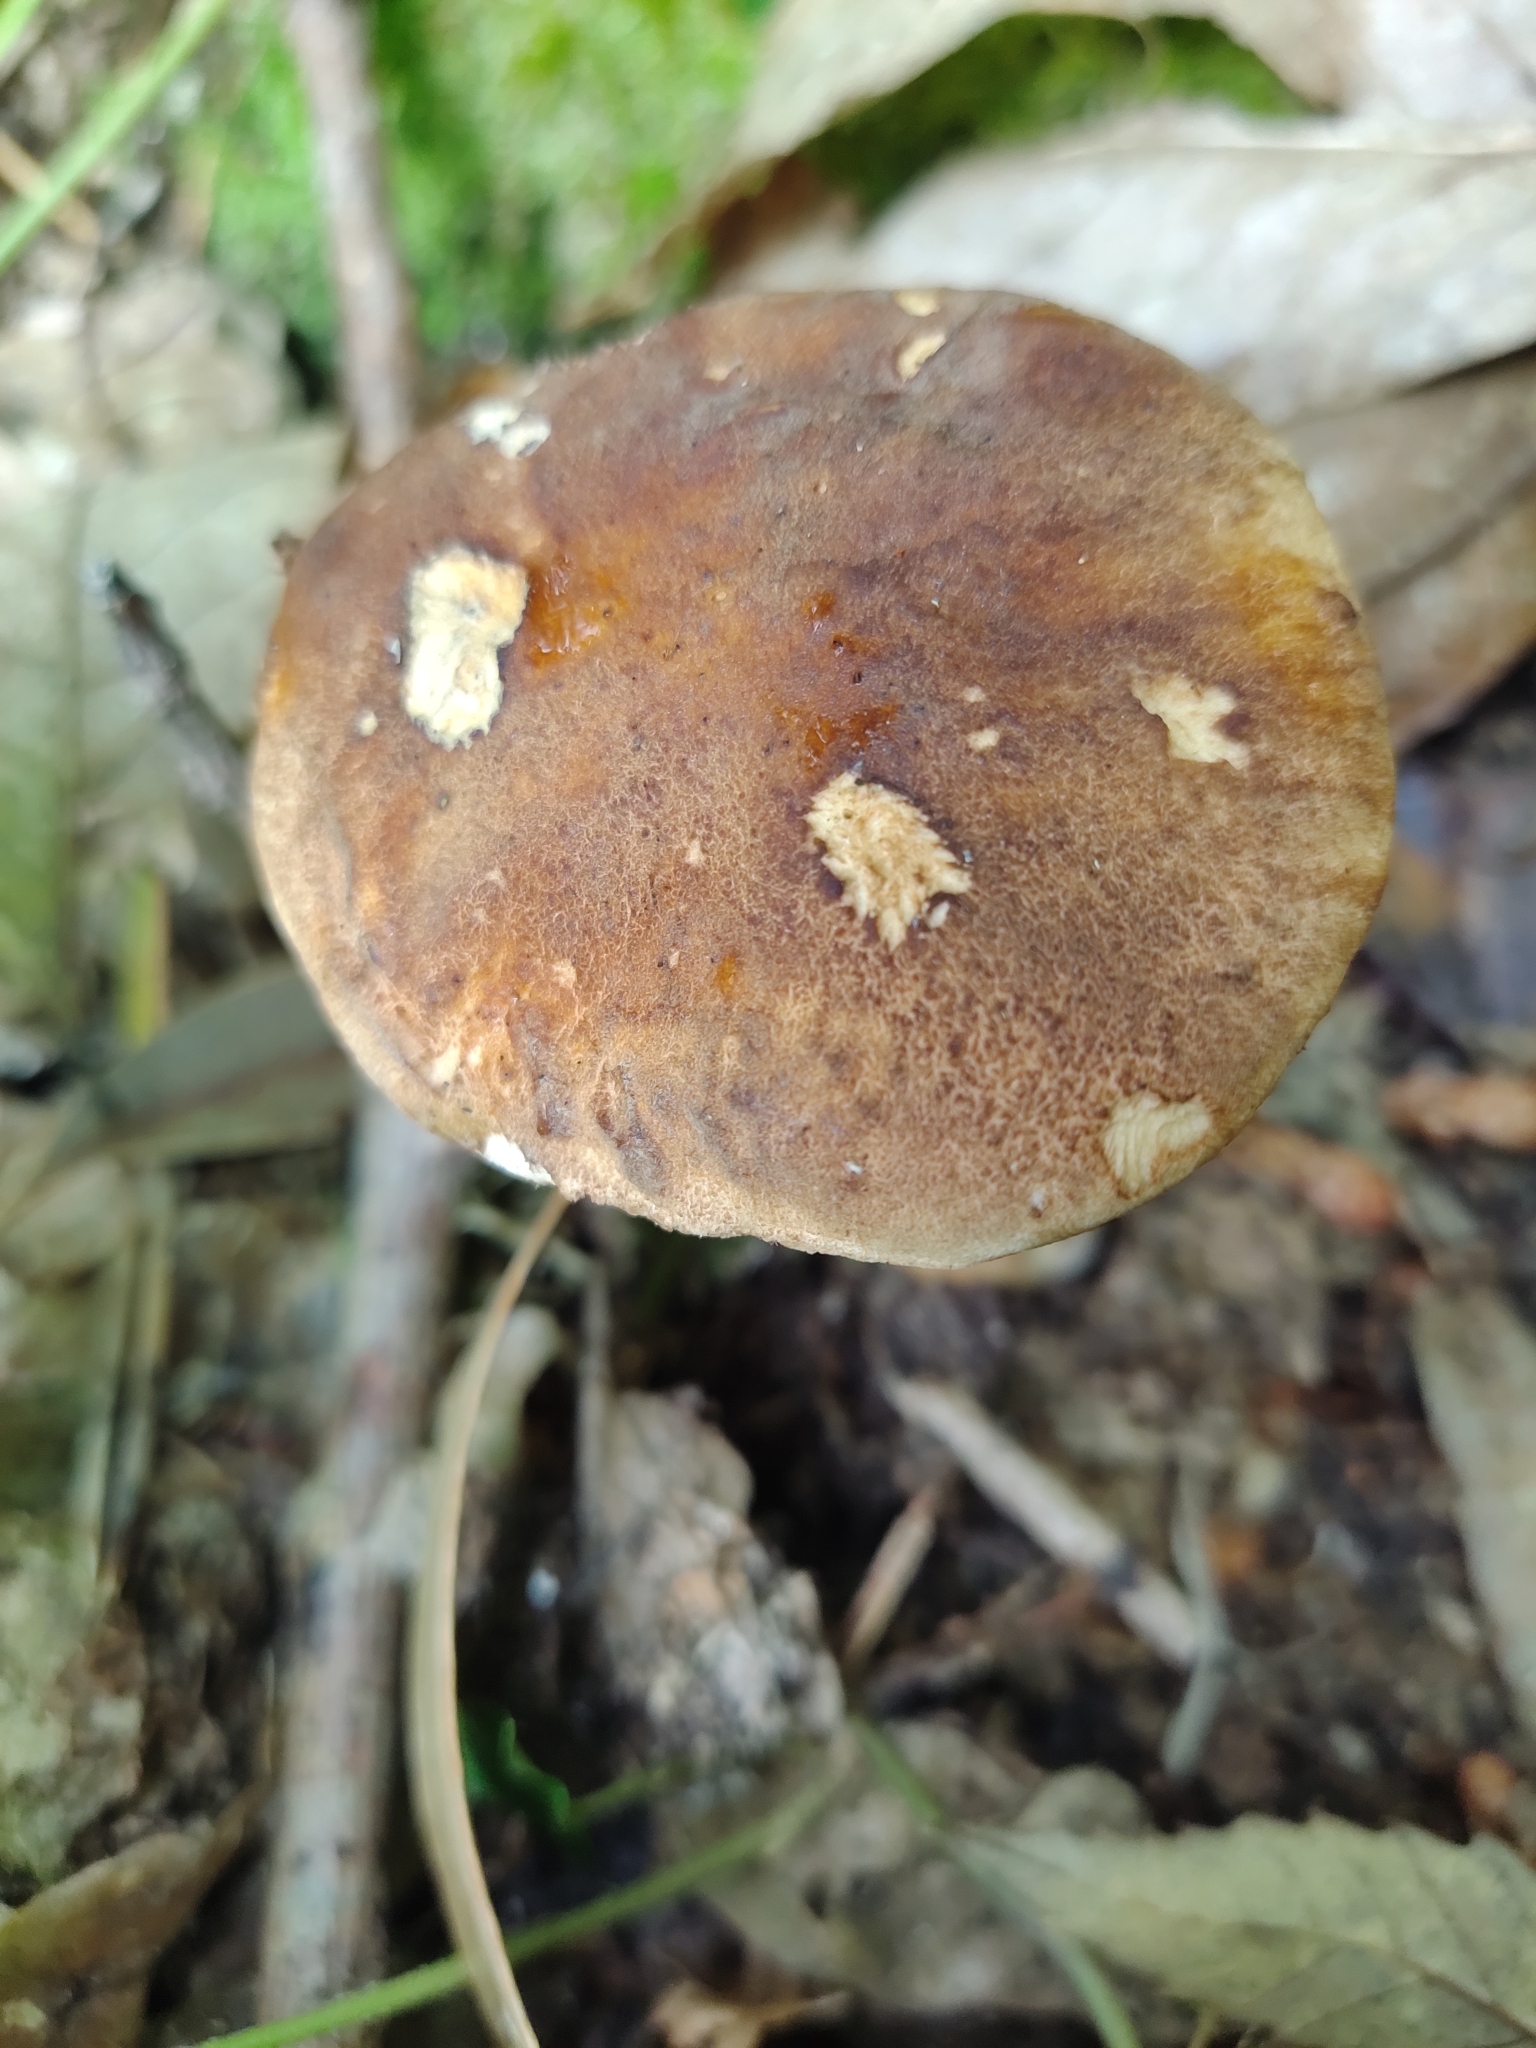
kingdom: Fungi
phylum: Basidiomycota
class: Agaricomycetes
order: Boletales
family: Boletaceae
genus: Boletus
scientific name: Boletus reticulatus
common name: Summer bolete
